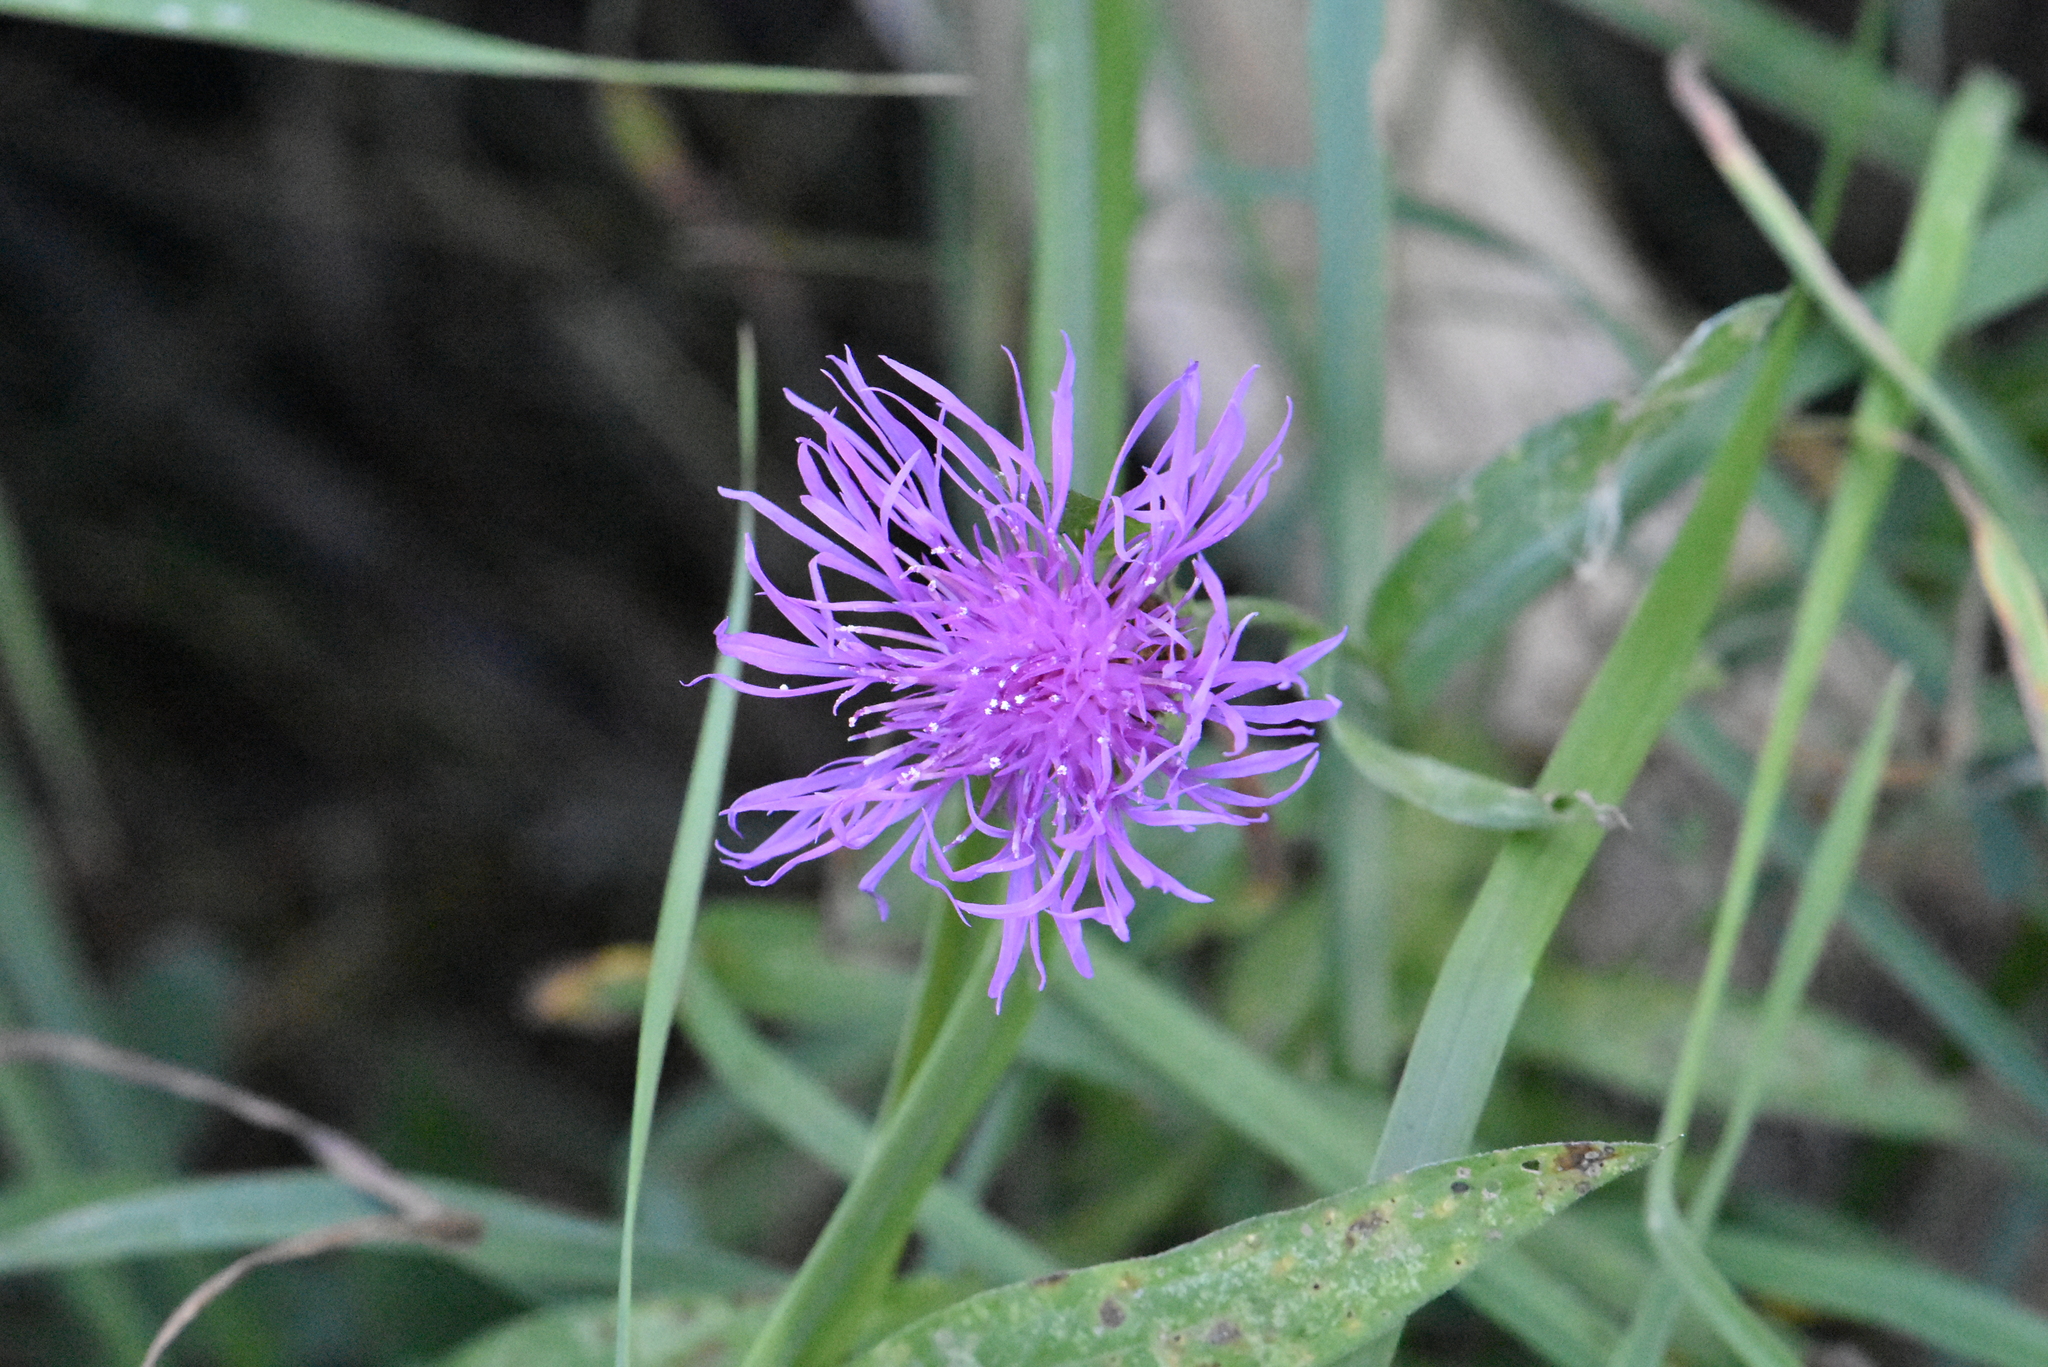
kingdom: Plantae
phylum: Tracheophyta
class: Magnoliopsida
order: Asterales
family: Asteraceae
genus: Centaurea
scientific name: Centaurea jacea
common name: Brown knapweed
